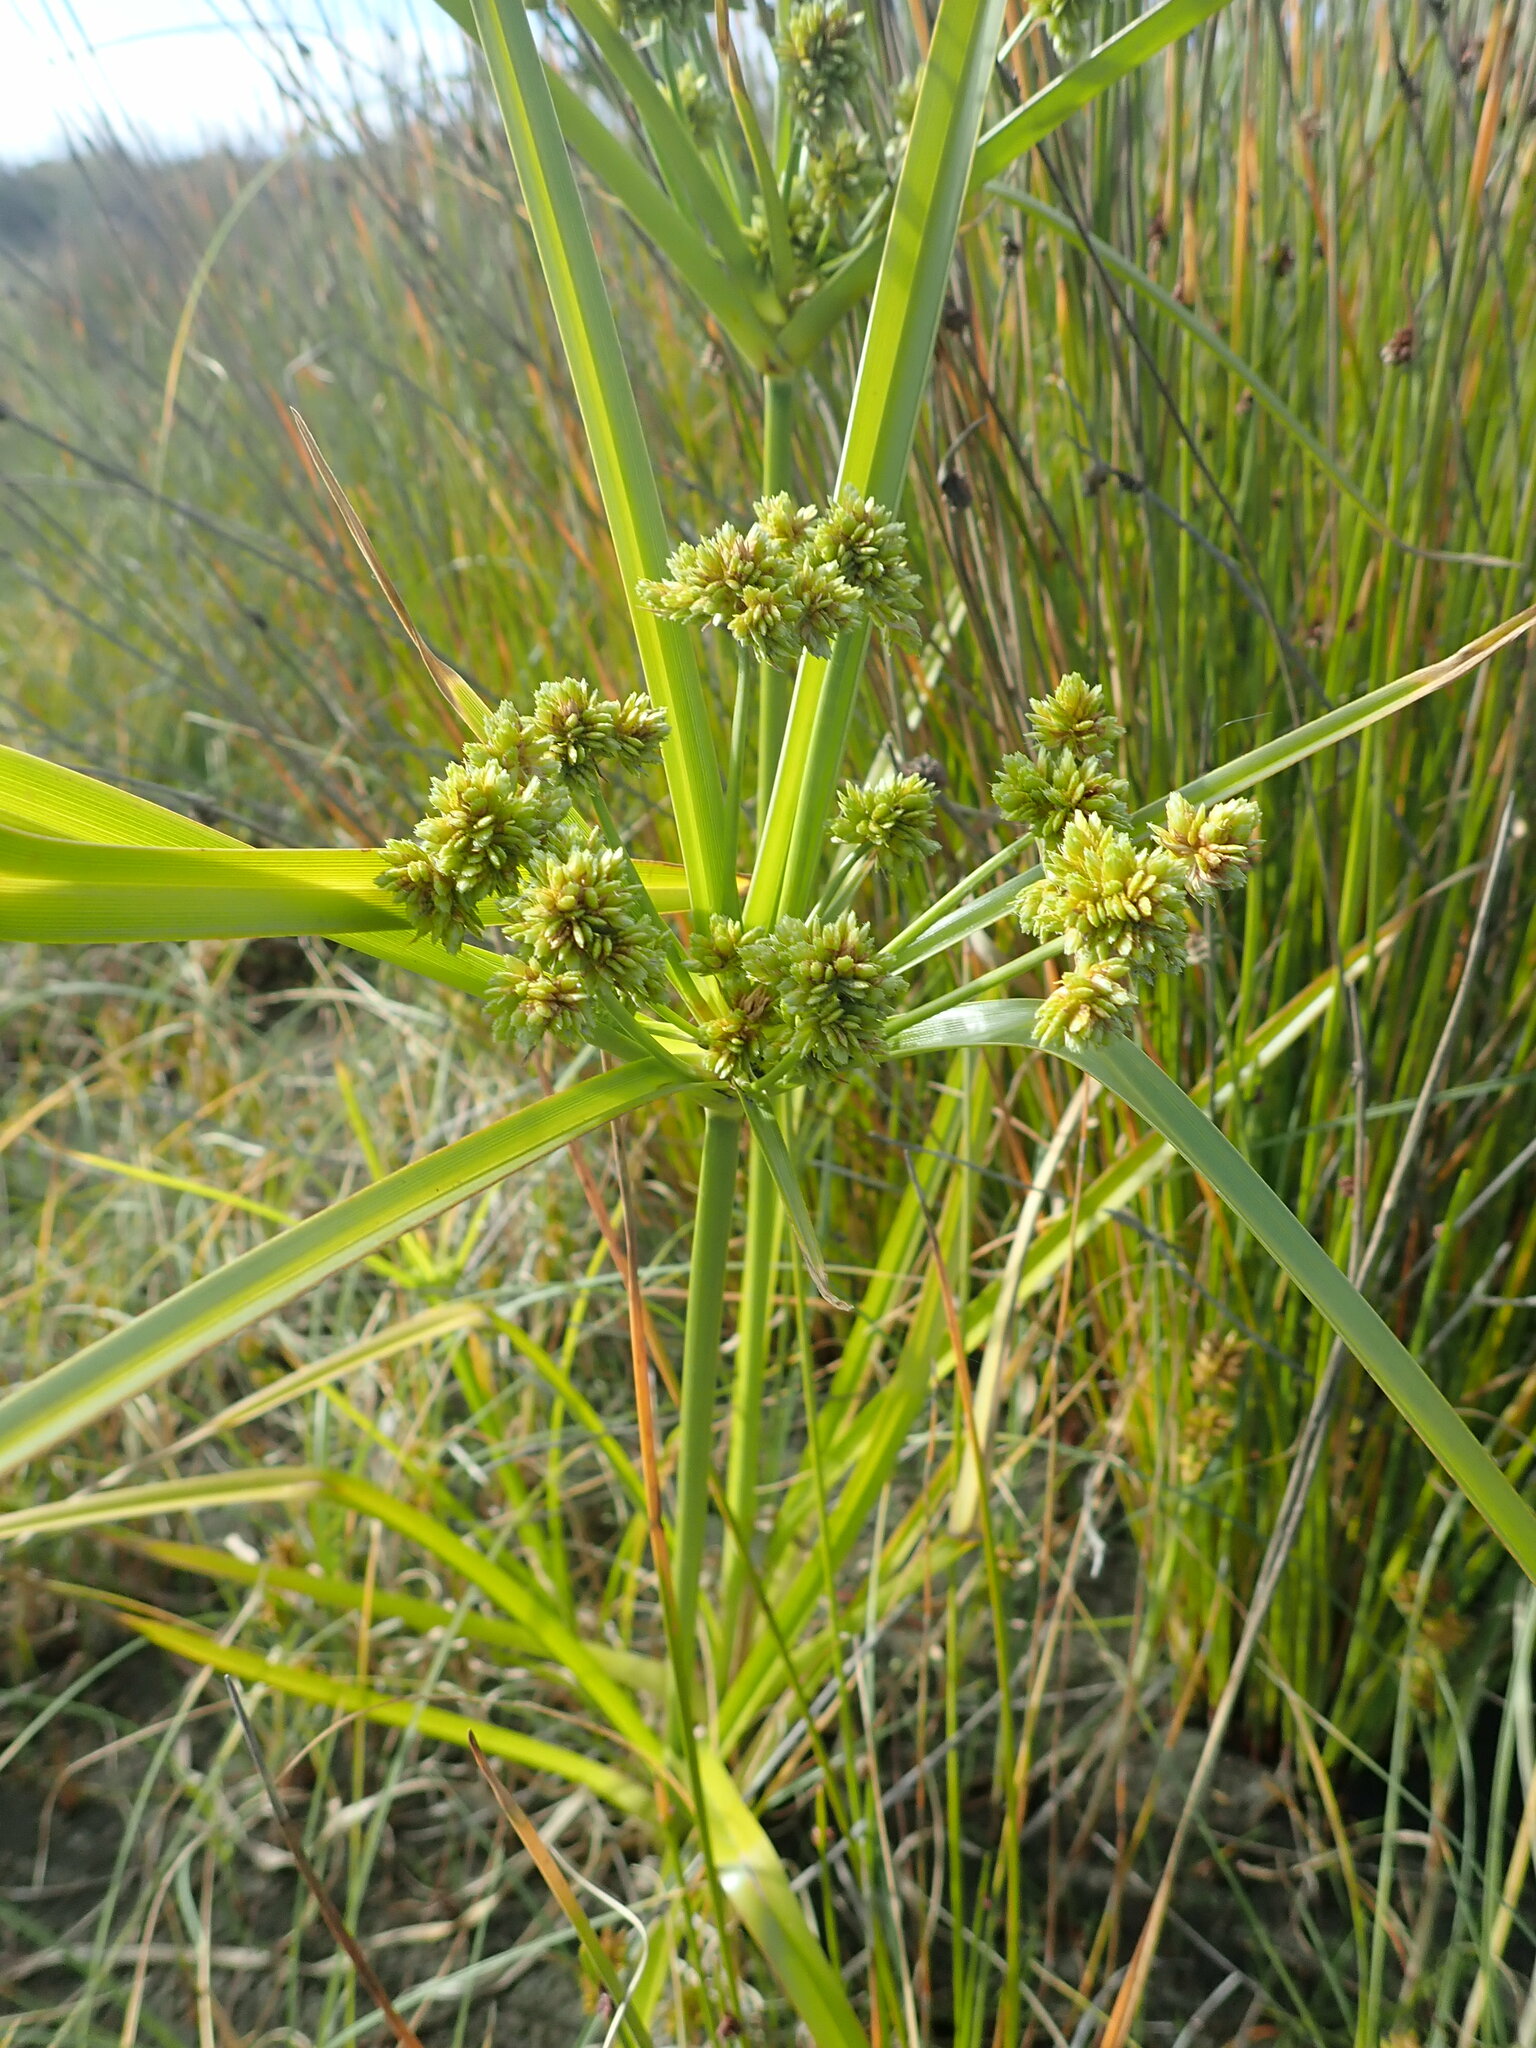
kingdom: Plantae
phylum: Tracheophyta
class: Liliopsida
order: Poales
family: Cyperaceae
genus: Cyperus
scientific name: Cyperus eragrostis
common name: Tall flatsedge
